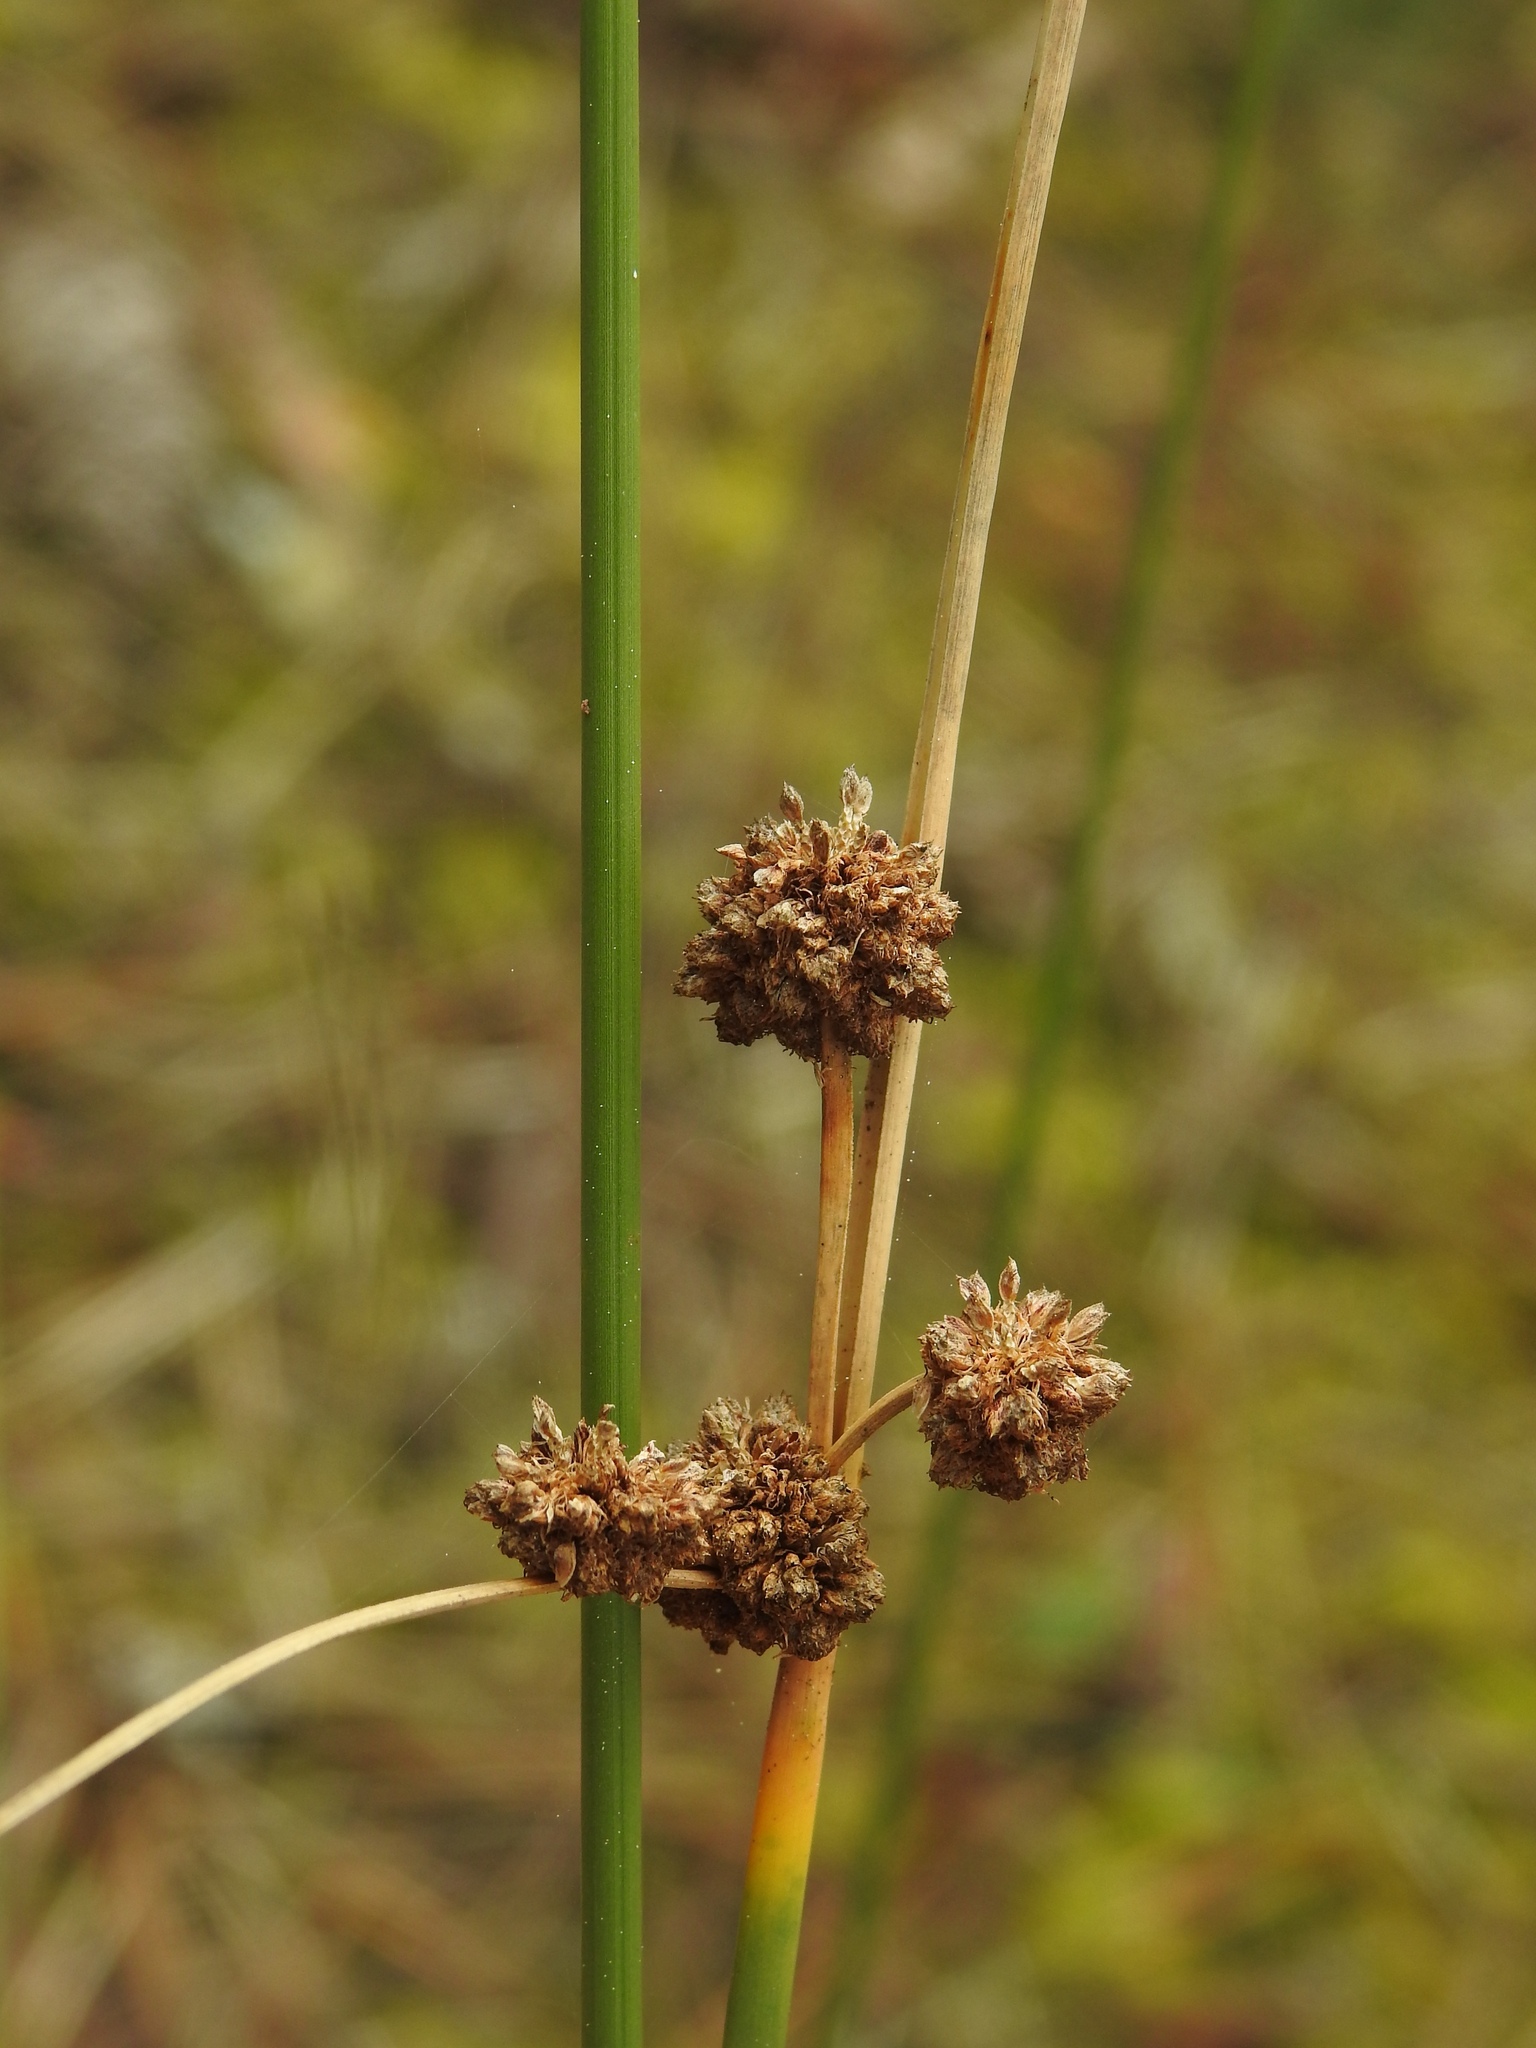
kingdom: Plantae
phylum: Tracheophyta
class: Liliopsida
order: Poales
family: Cyperaceae
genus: Scirpoides
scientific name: Scirpoides holoschoenus
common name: Round-headed club-rush
